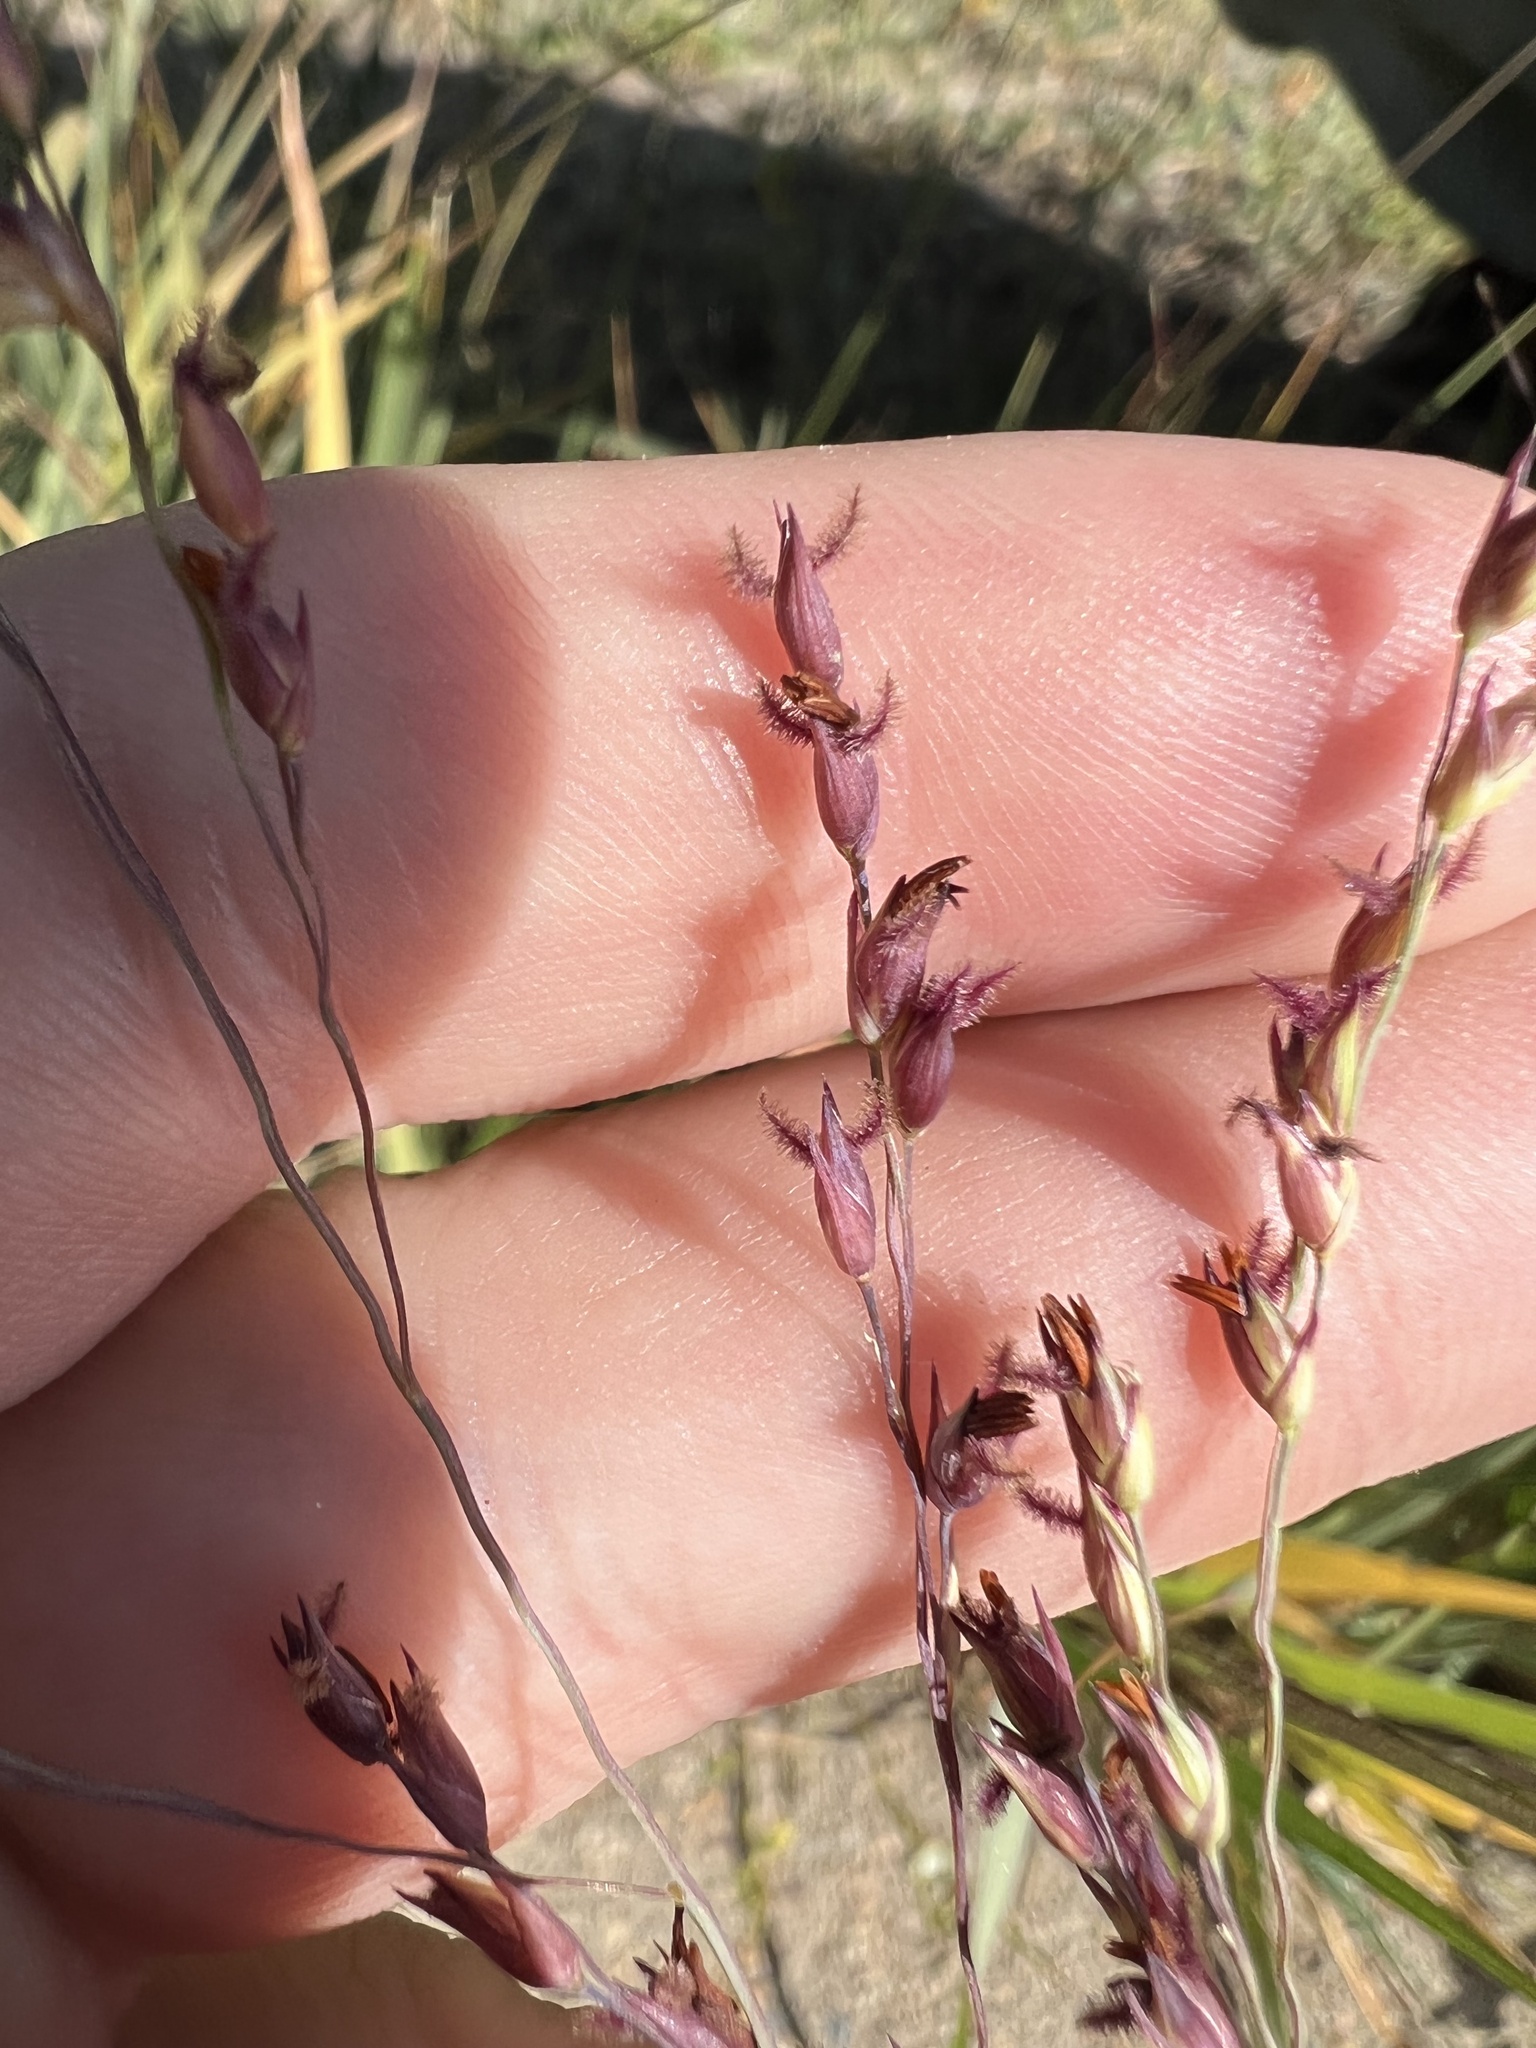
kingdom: Plantae
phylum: Tracheophyta
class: Liliopsida
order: Poales
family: Poaceae
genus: Panicum
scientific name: Panicum virgatum
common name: Switchgrass
